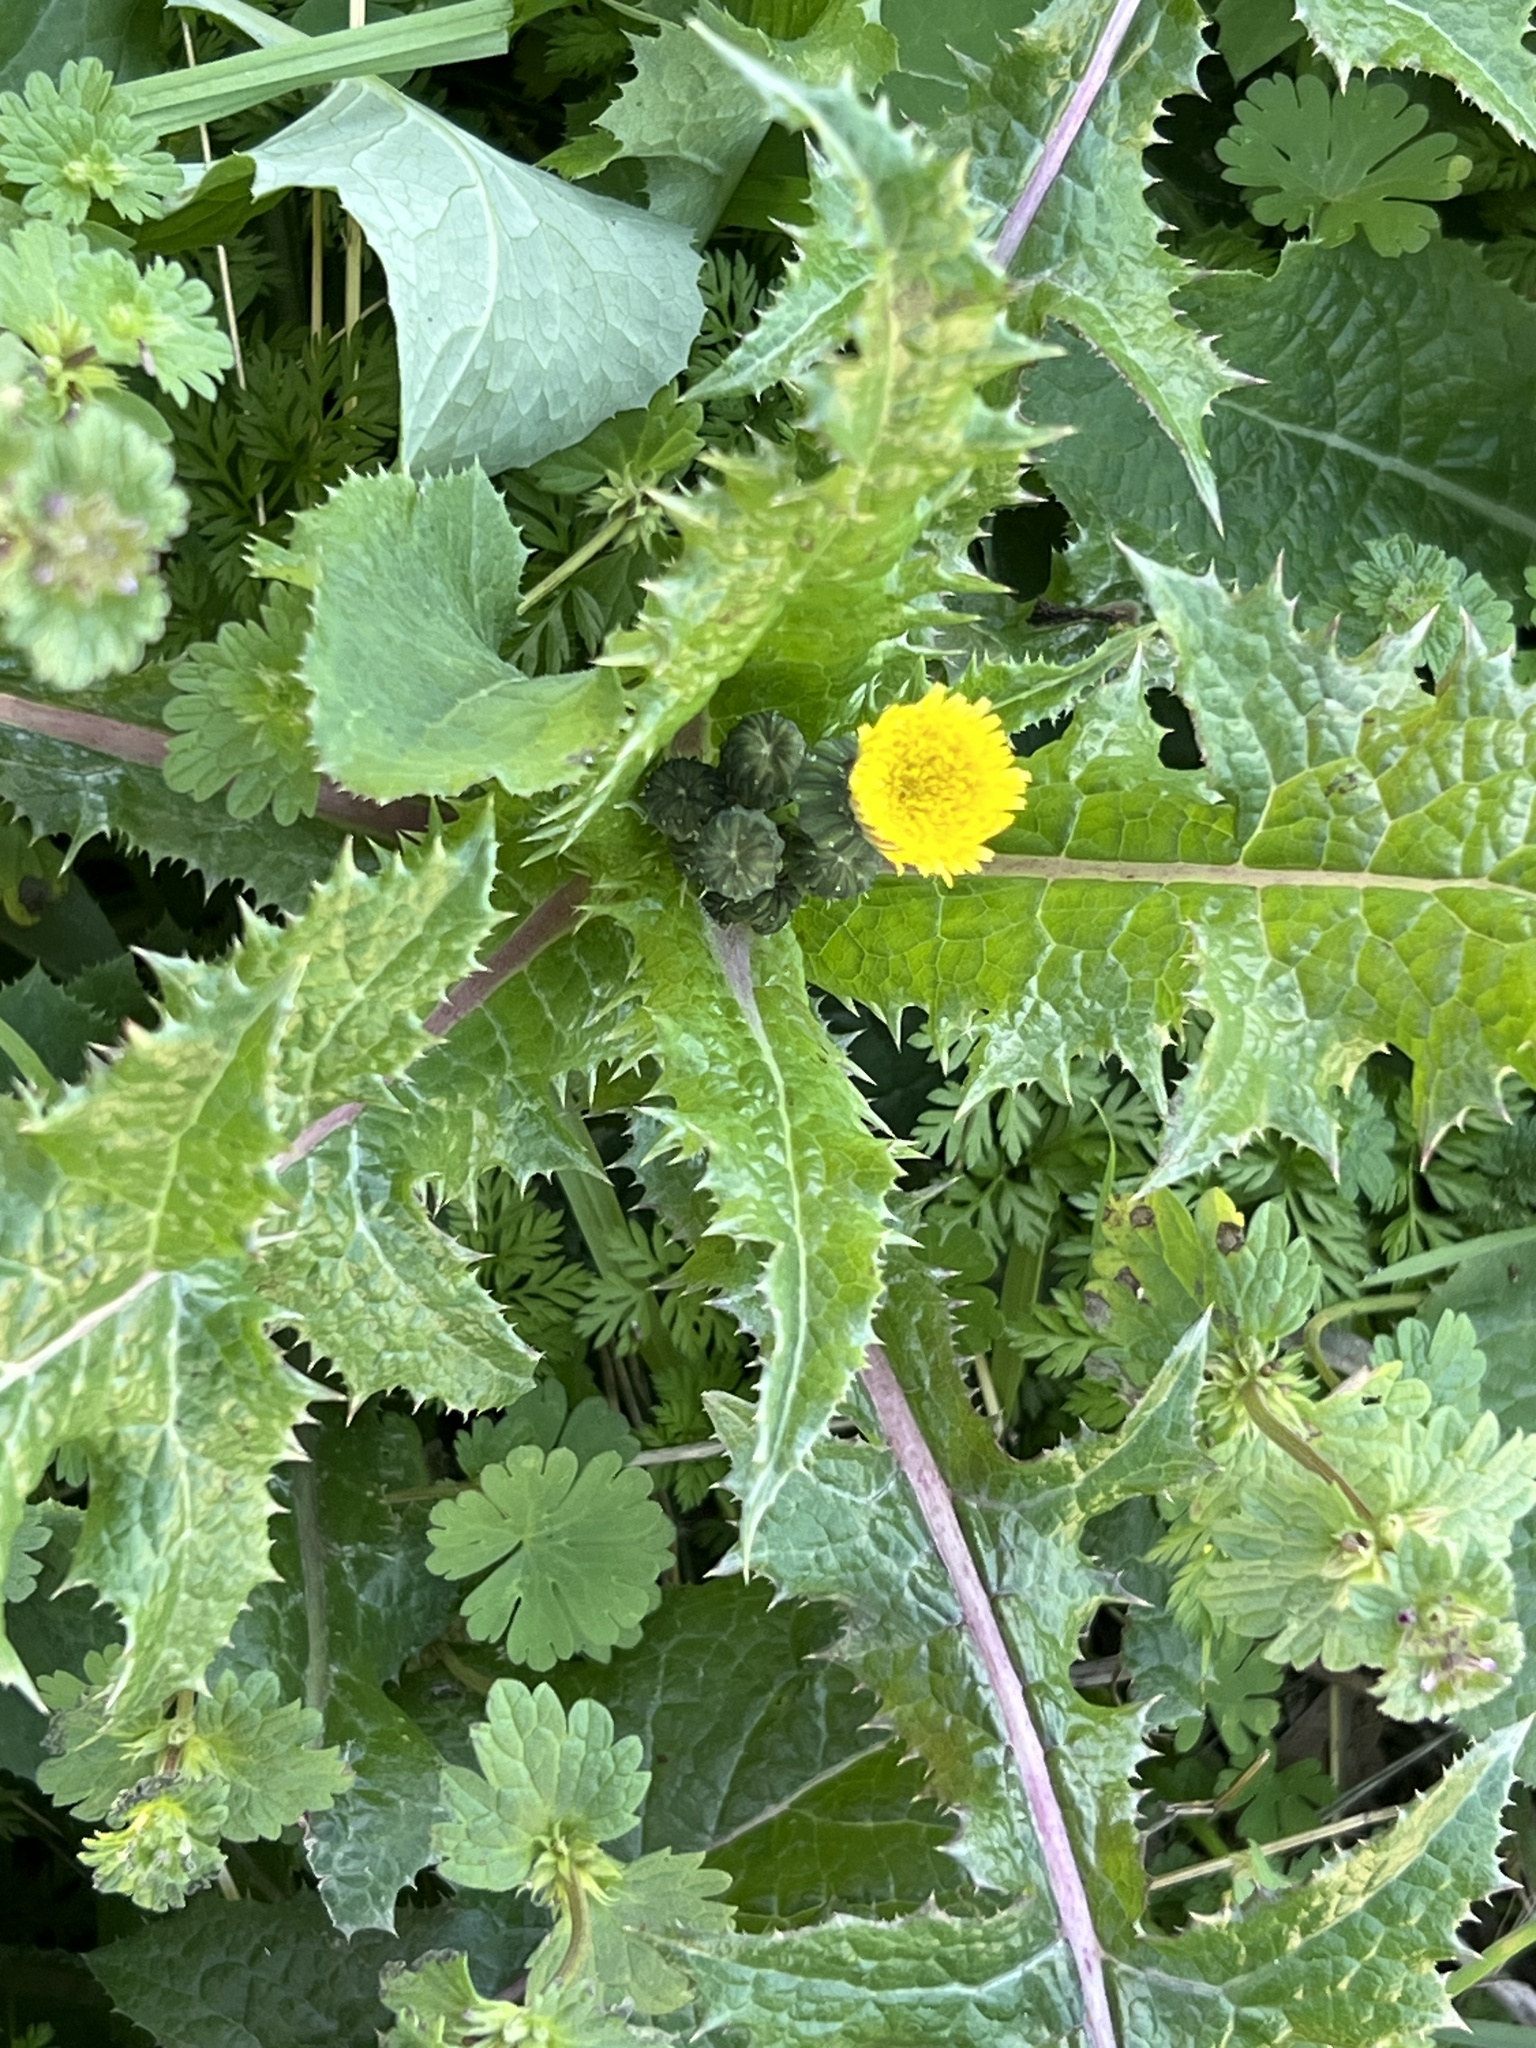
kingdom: Plantae
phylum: Tracheophyta
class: Magnoliopsida
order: Asterales
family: Asteraceae
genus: Sonchus
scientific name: Sonchus asper
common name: Prickly sow-thistle
